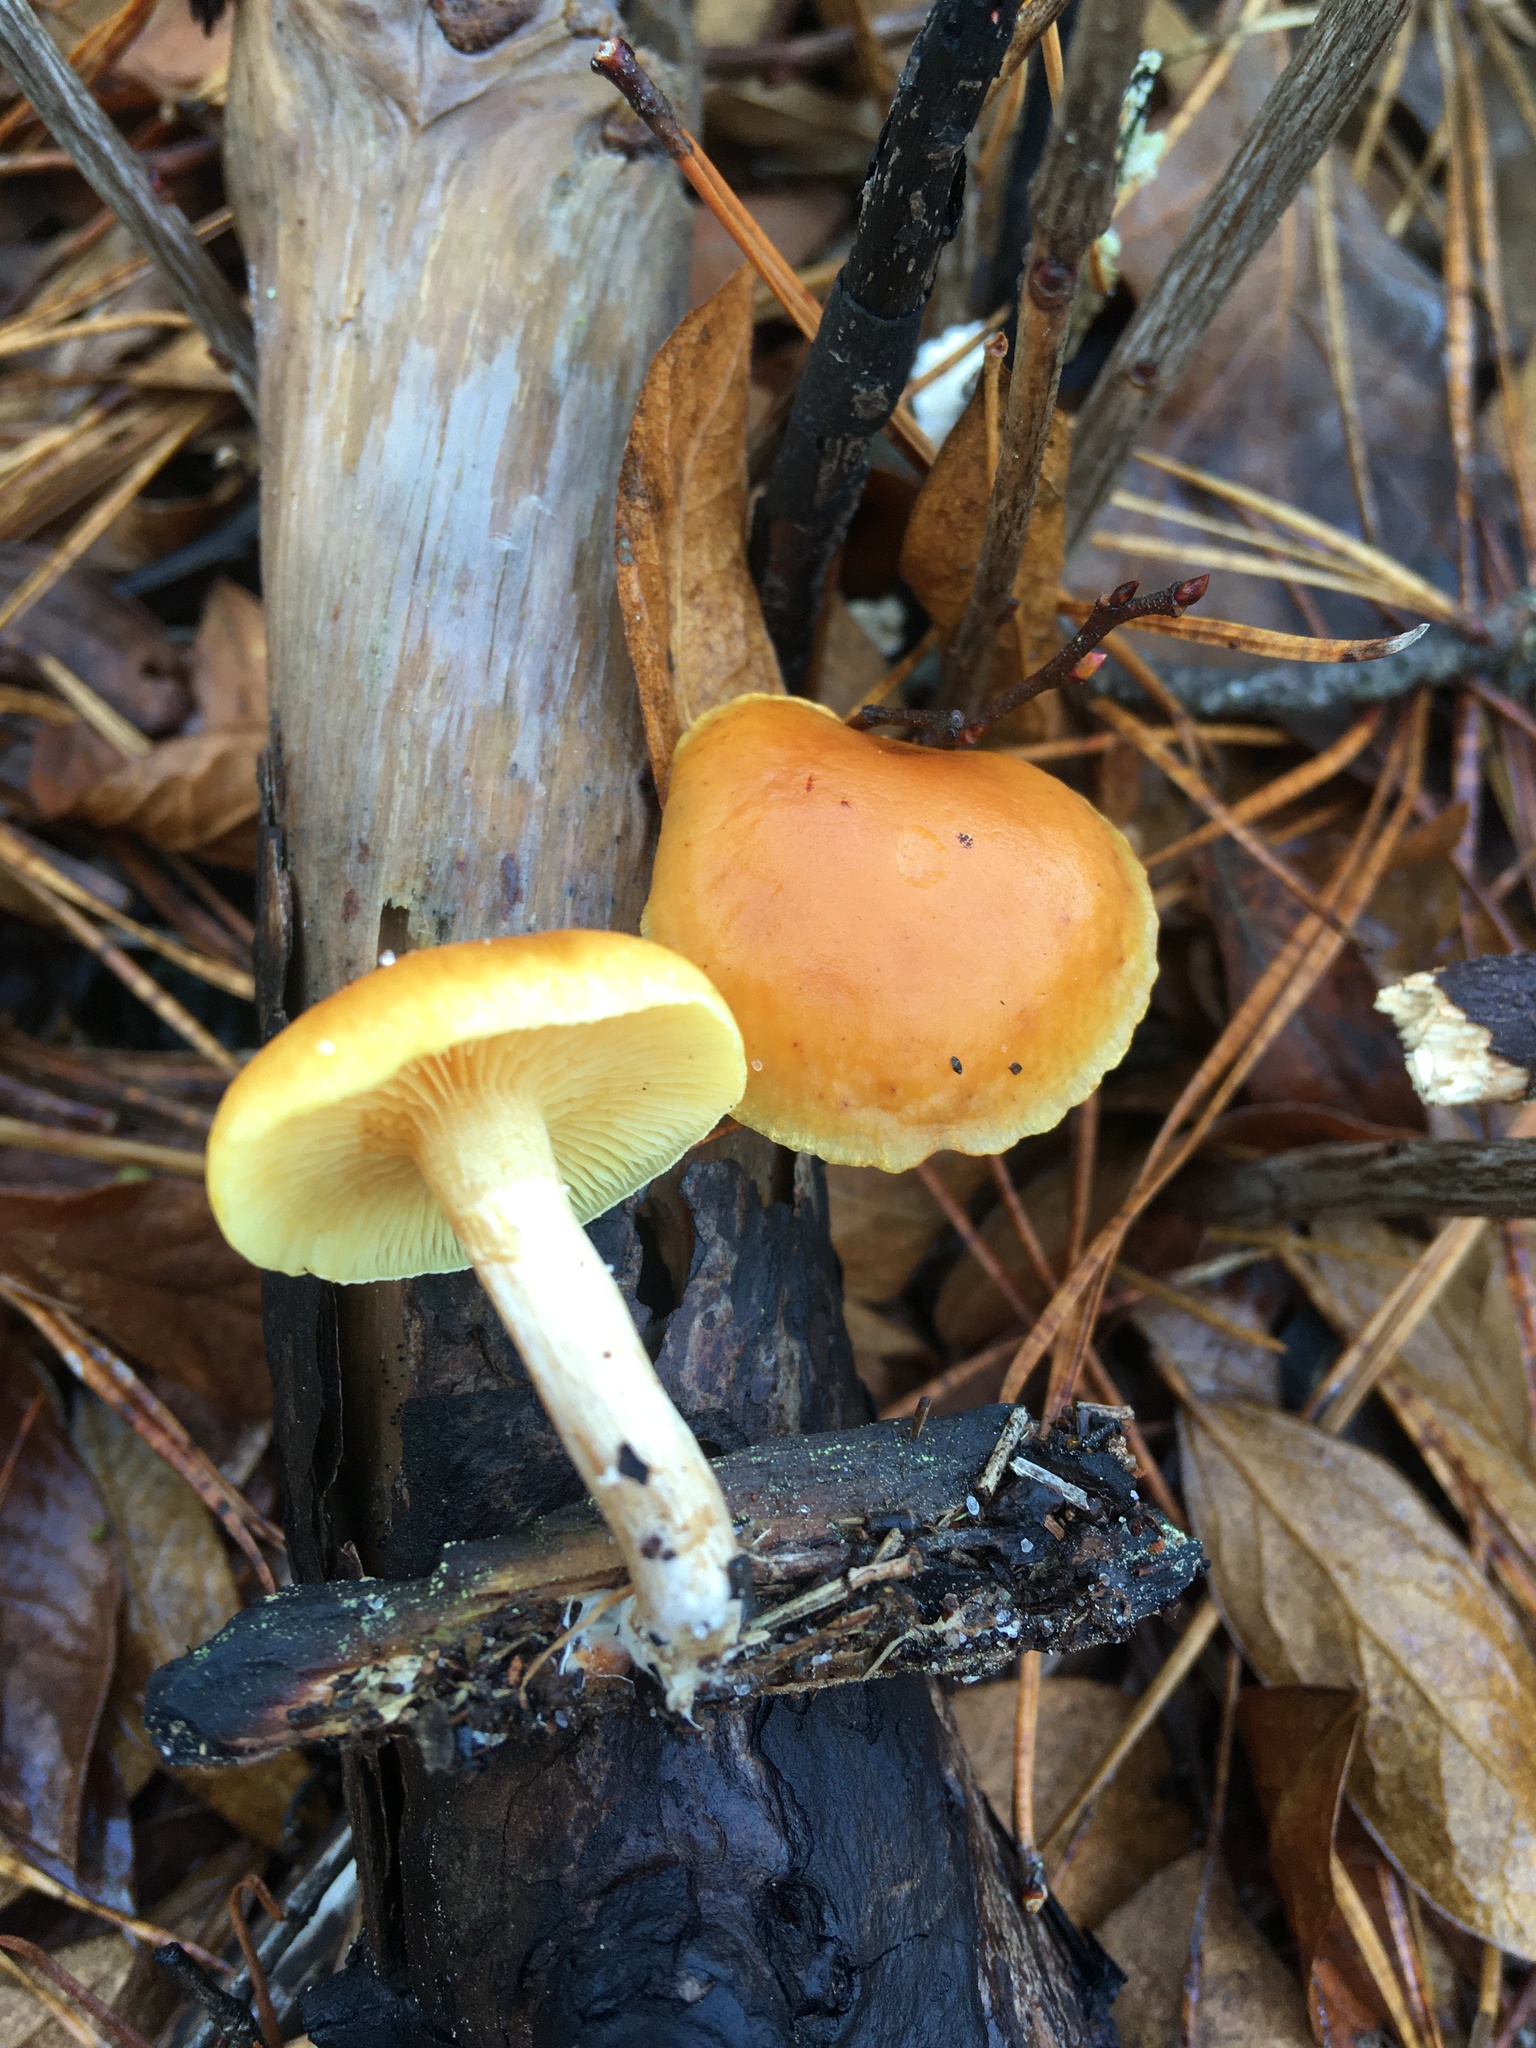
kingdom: Fungi
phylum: Basidiomycota
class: Agaricomycetes
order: Agaricales
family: Hymenogastraceae
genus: Gymnopilus
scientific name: Gymnopilus penetrans
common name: Common rustgill
